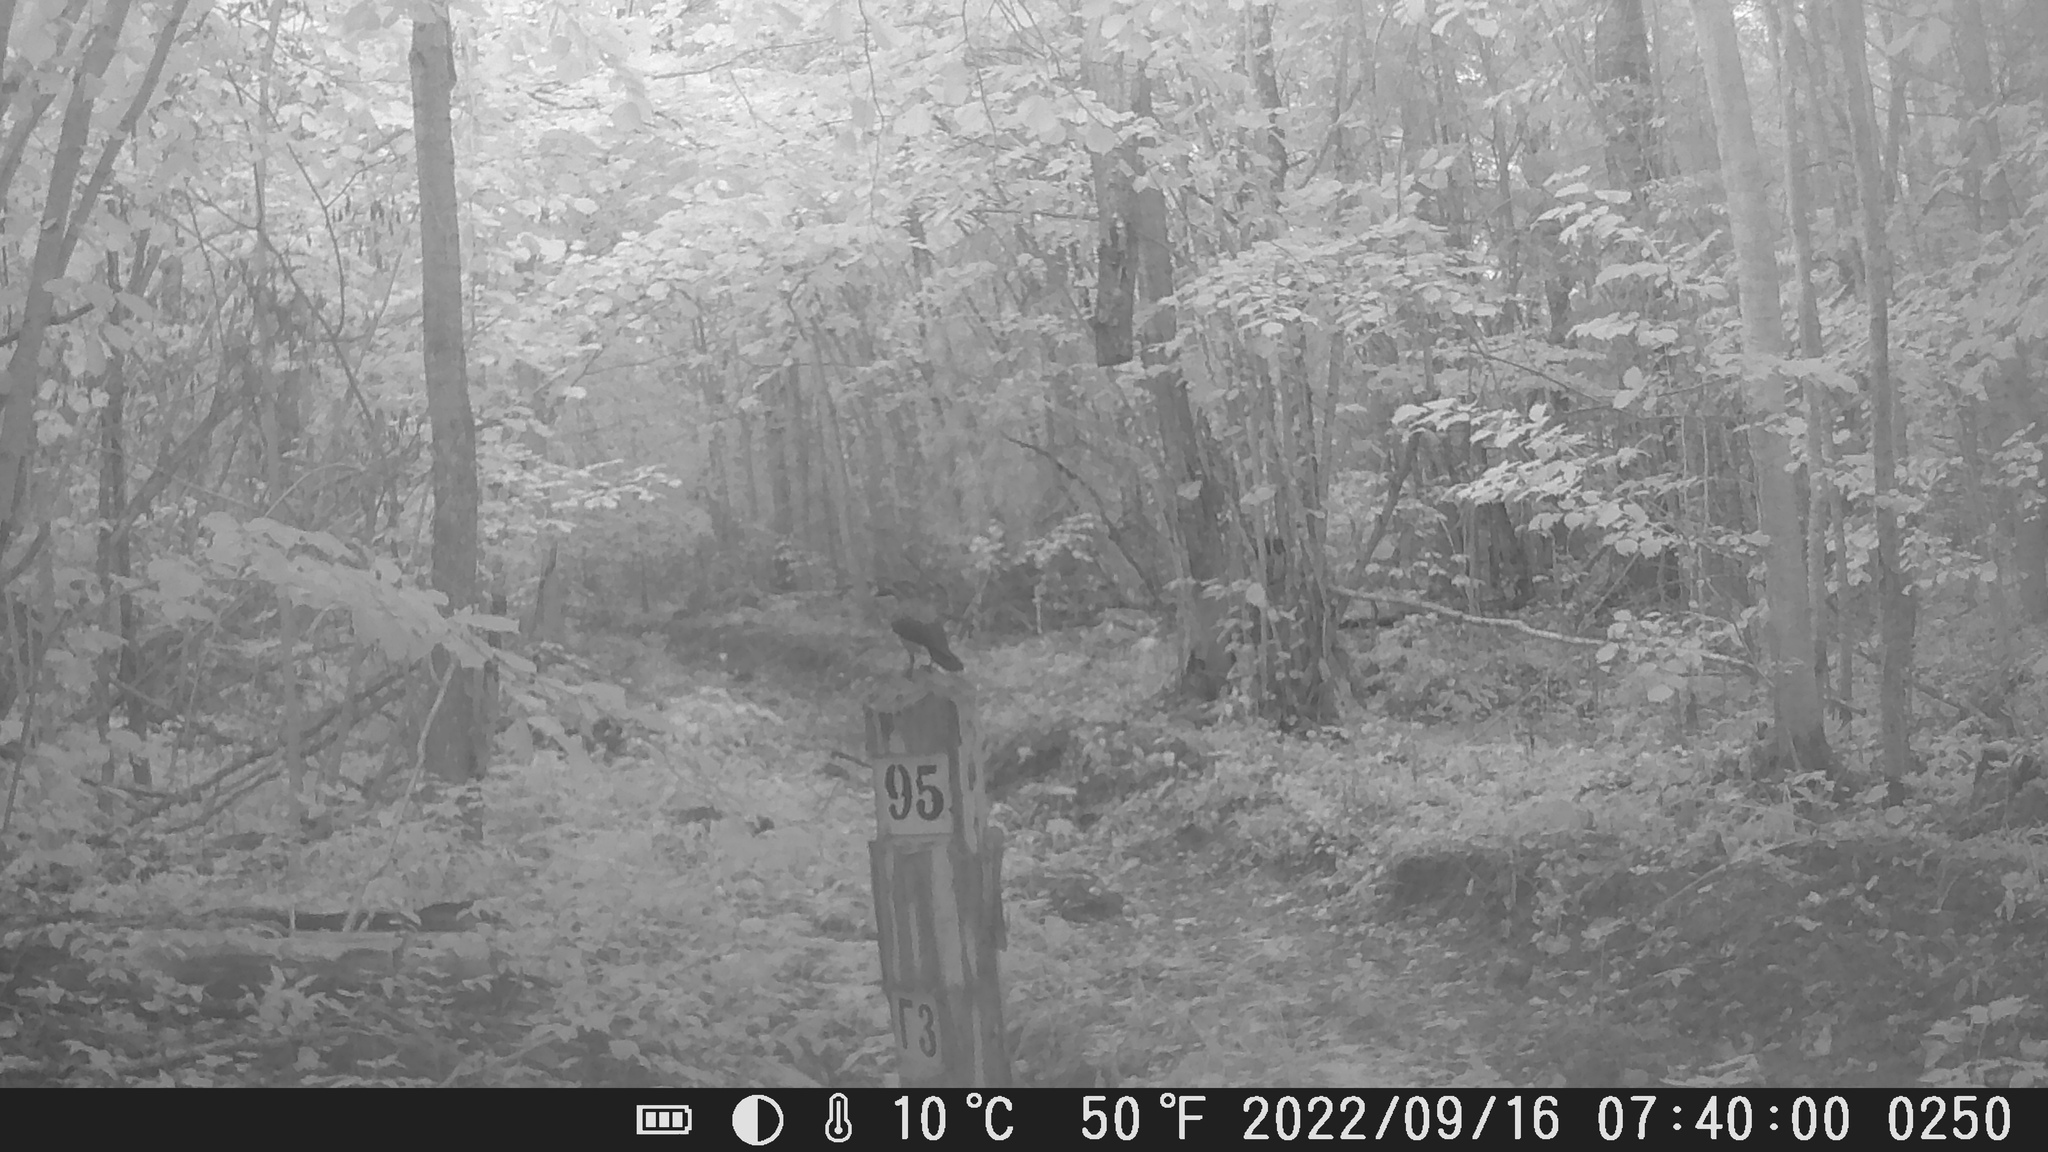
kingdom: Animalia
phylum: Chordata
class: Aves
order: Passeriformes
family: Corvidae
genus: Nucifraga
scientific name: Nucifraga caryocatactes
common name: Spotted nutcracker
